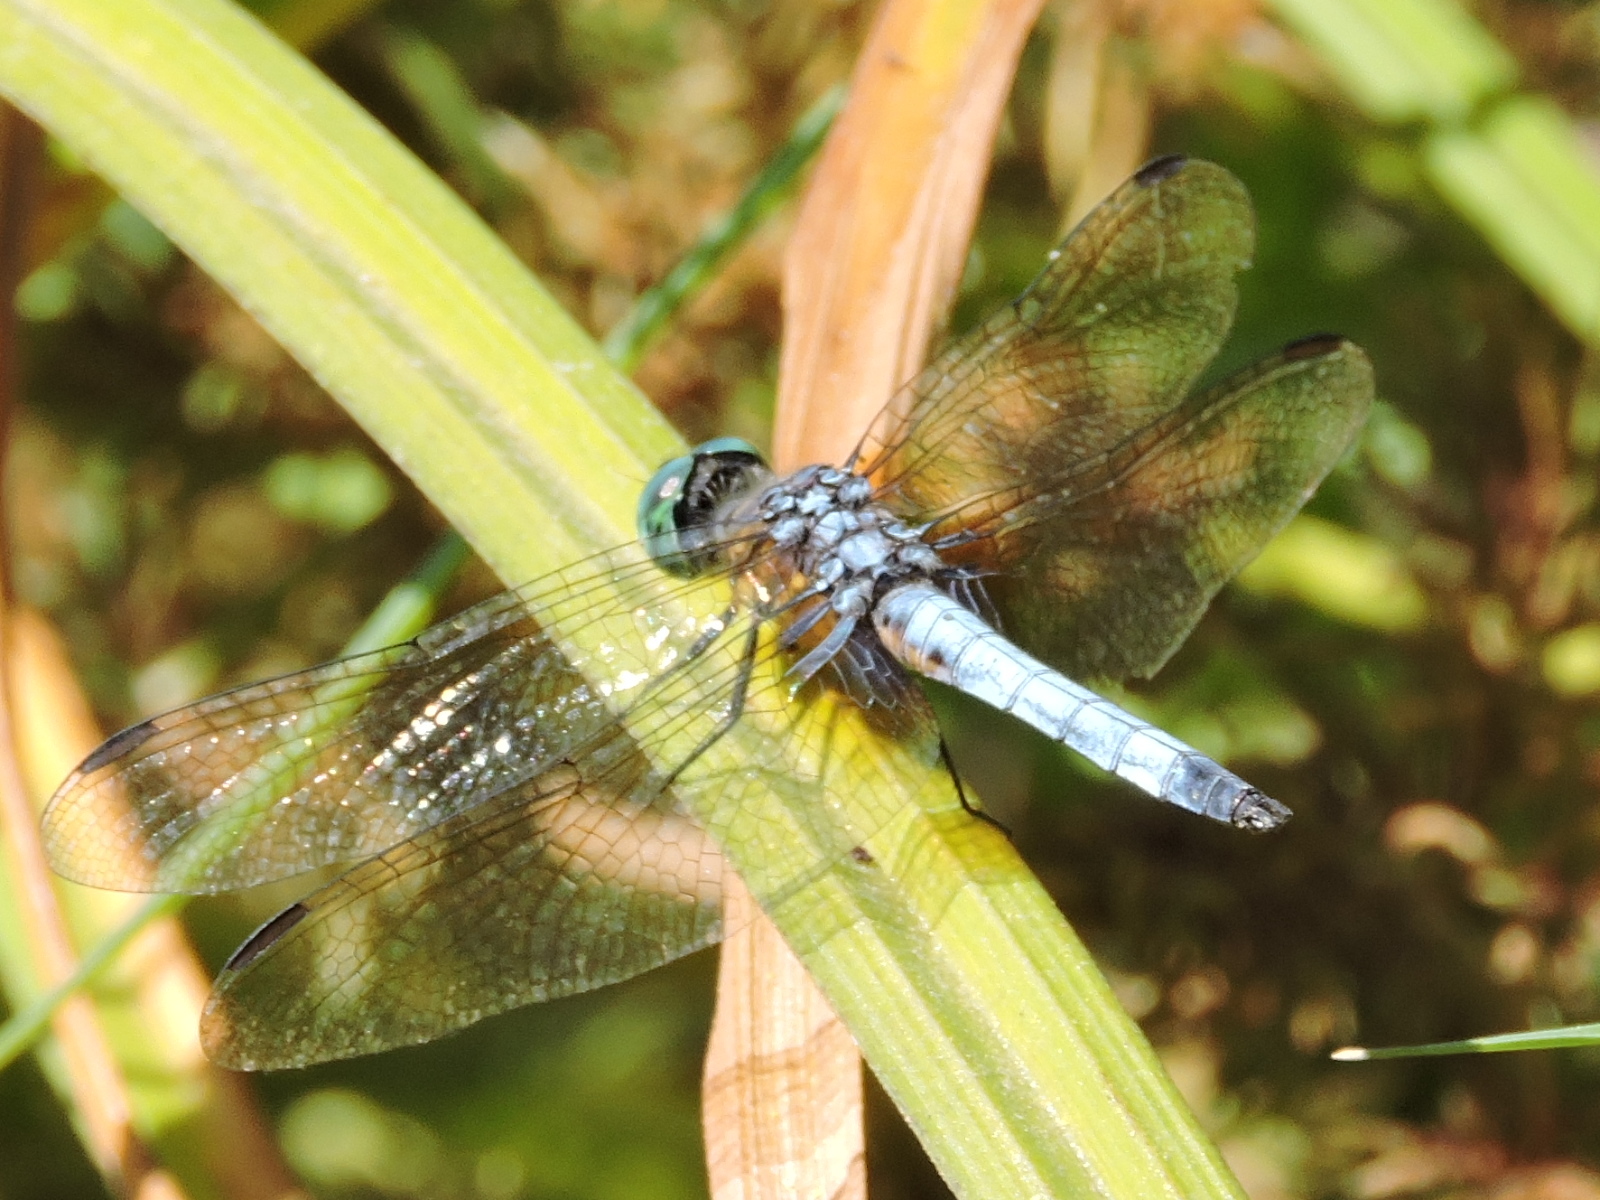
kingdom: Animalia
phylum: Arthropoda
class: Insecta
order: Odonata
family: Libellulidae
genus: Pachydiplax
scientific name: Pachydiplax longipennis
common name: Blue dasher
